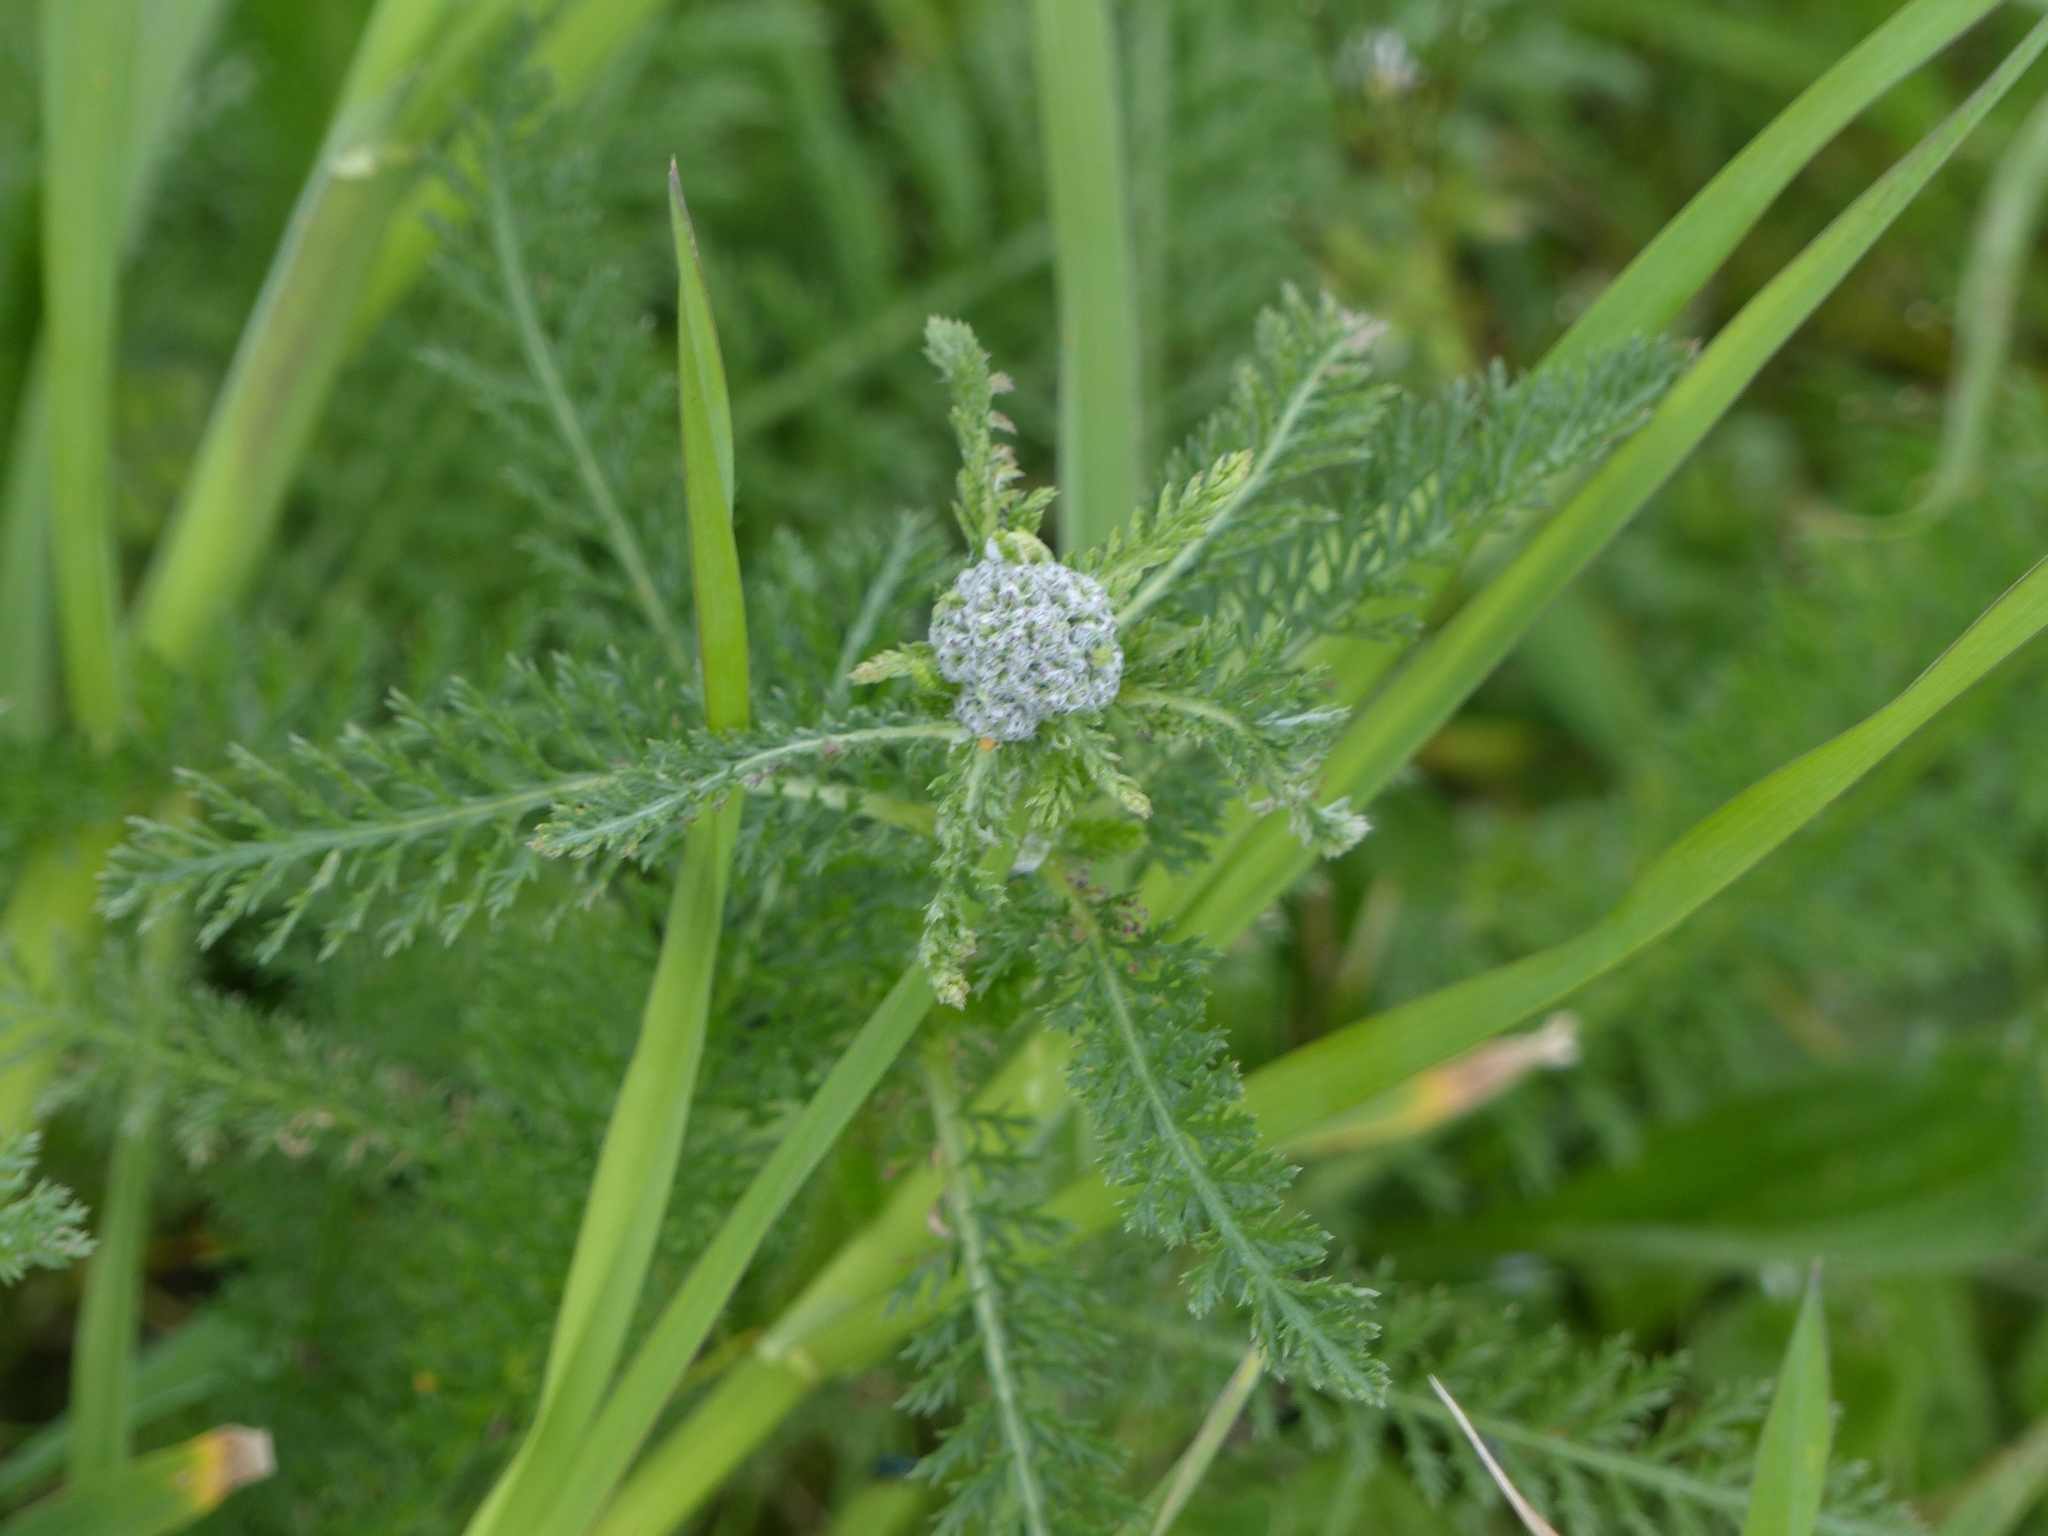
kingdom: Plantae
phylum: Tracheophyta
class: Magnoliopsida
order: Asterales
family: Asteraceae
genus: Achillea
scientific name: Achillea millefolium
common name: Yarrow
